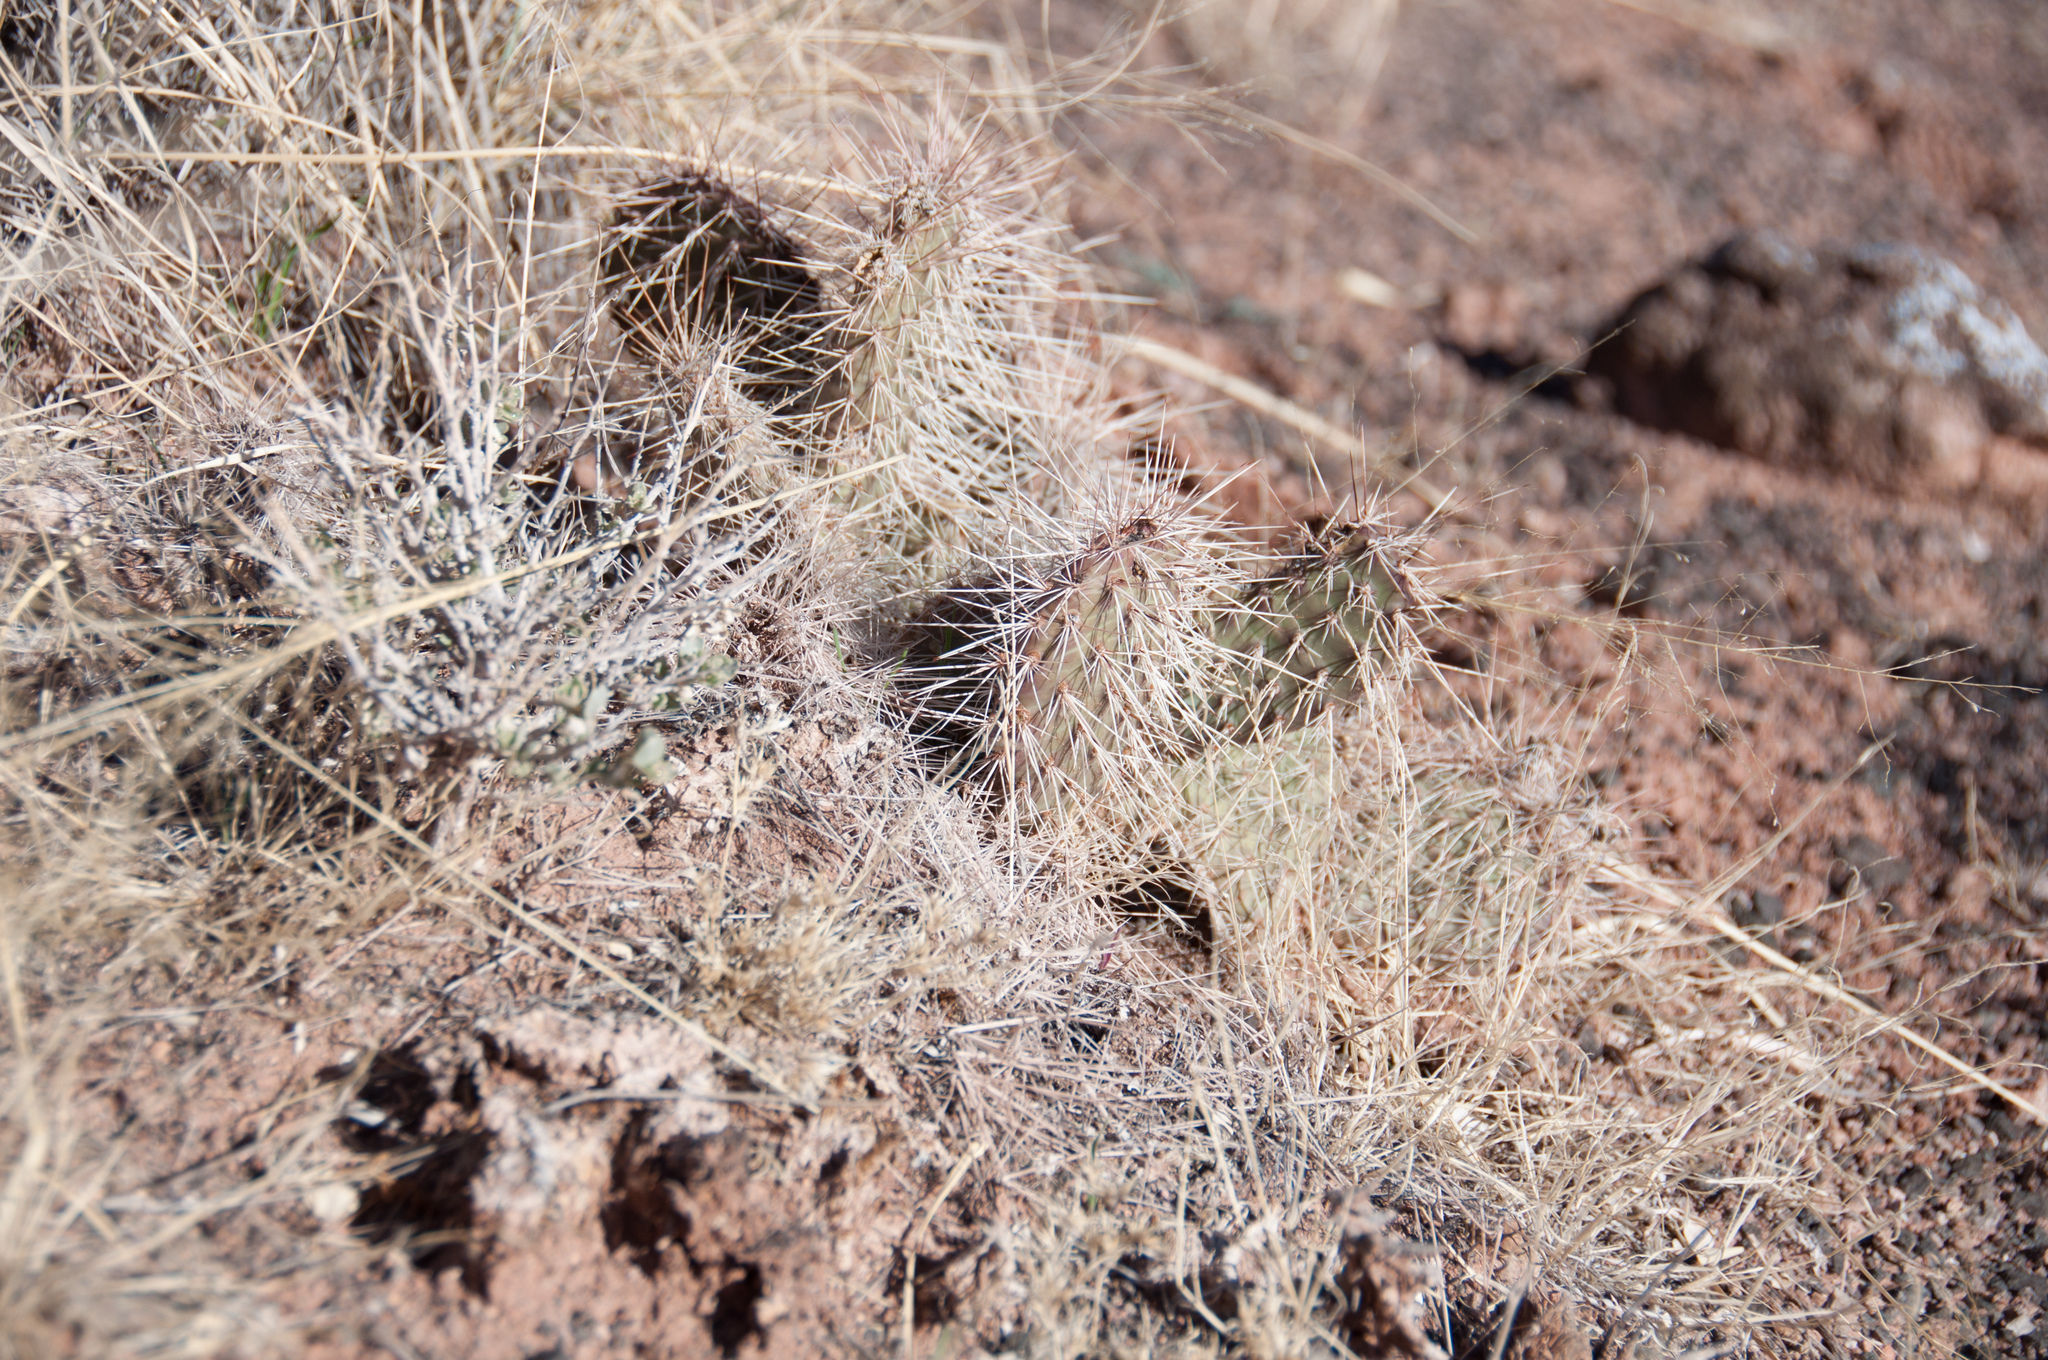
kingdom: Plantae
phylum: Tracheophyta
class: Magnoliopsida
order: Caryophyllales
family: Cactaceae
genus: Opuntia
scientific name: Opuntia polyacantha
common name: Plains prickly-pear
